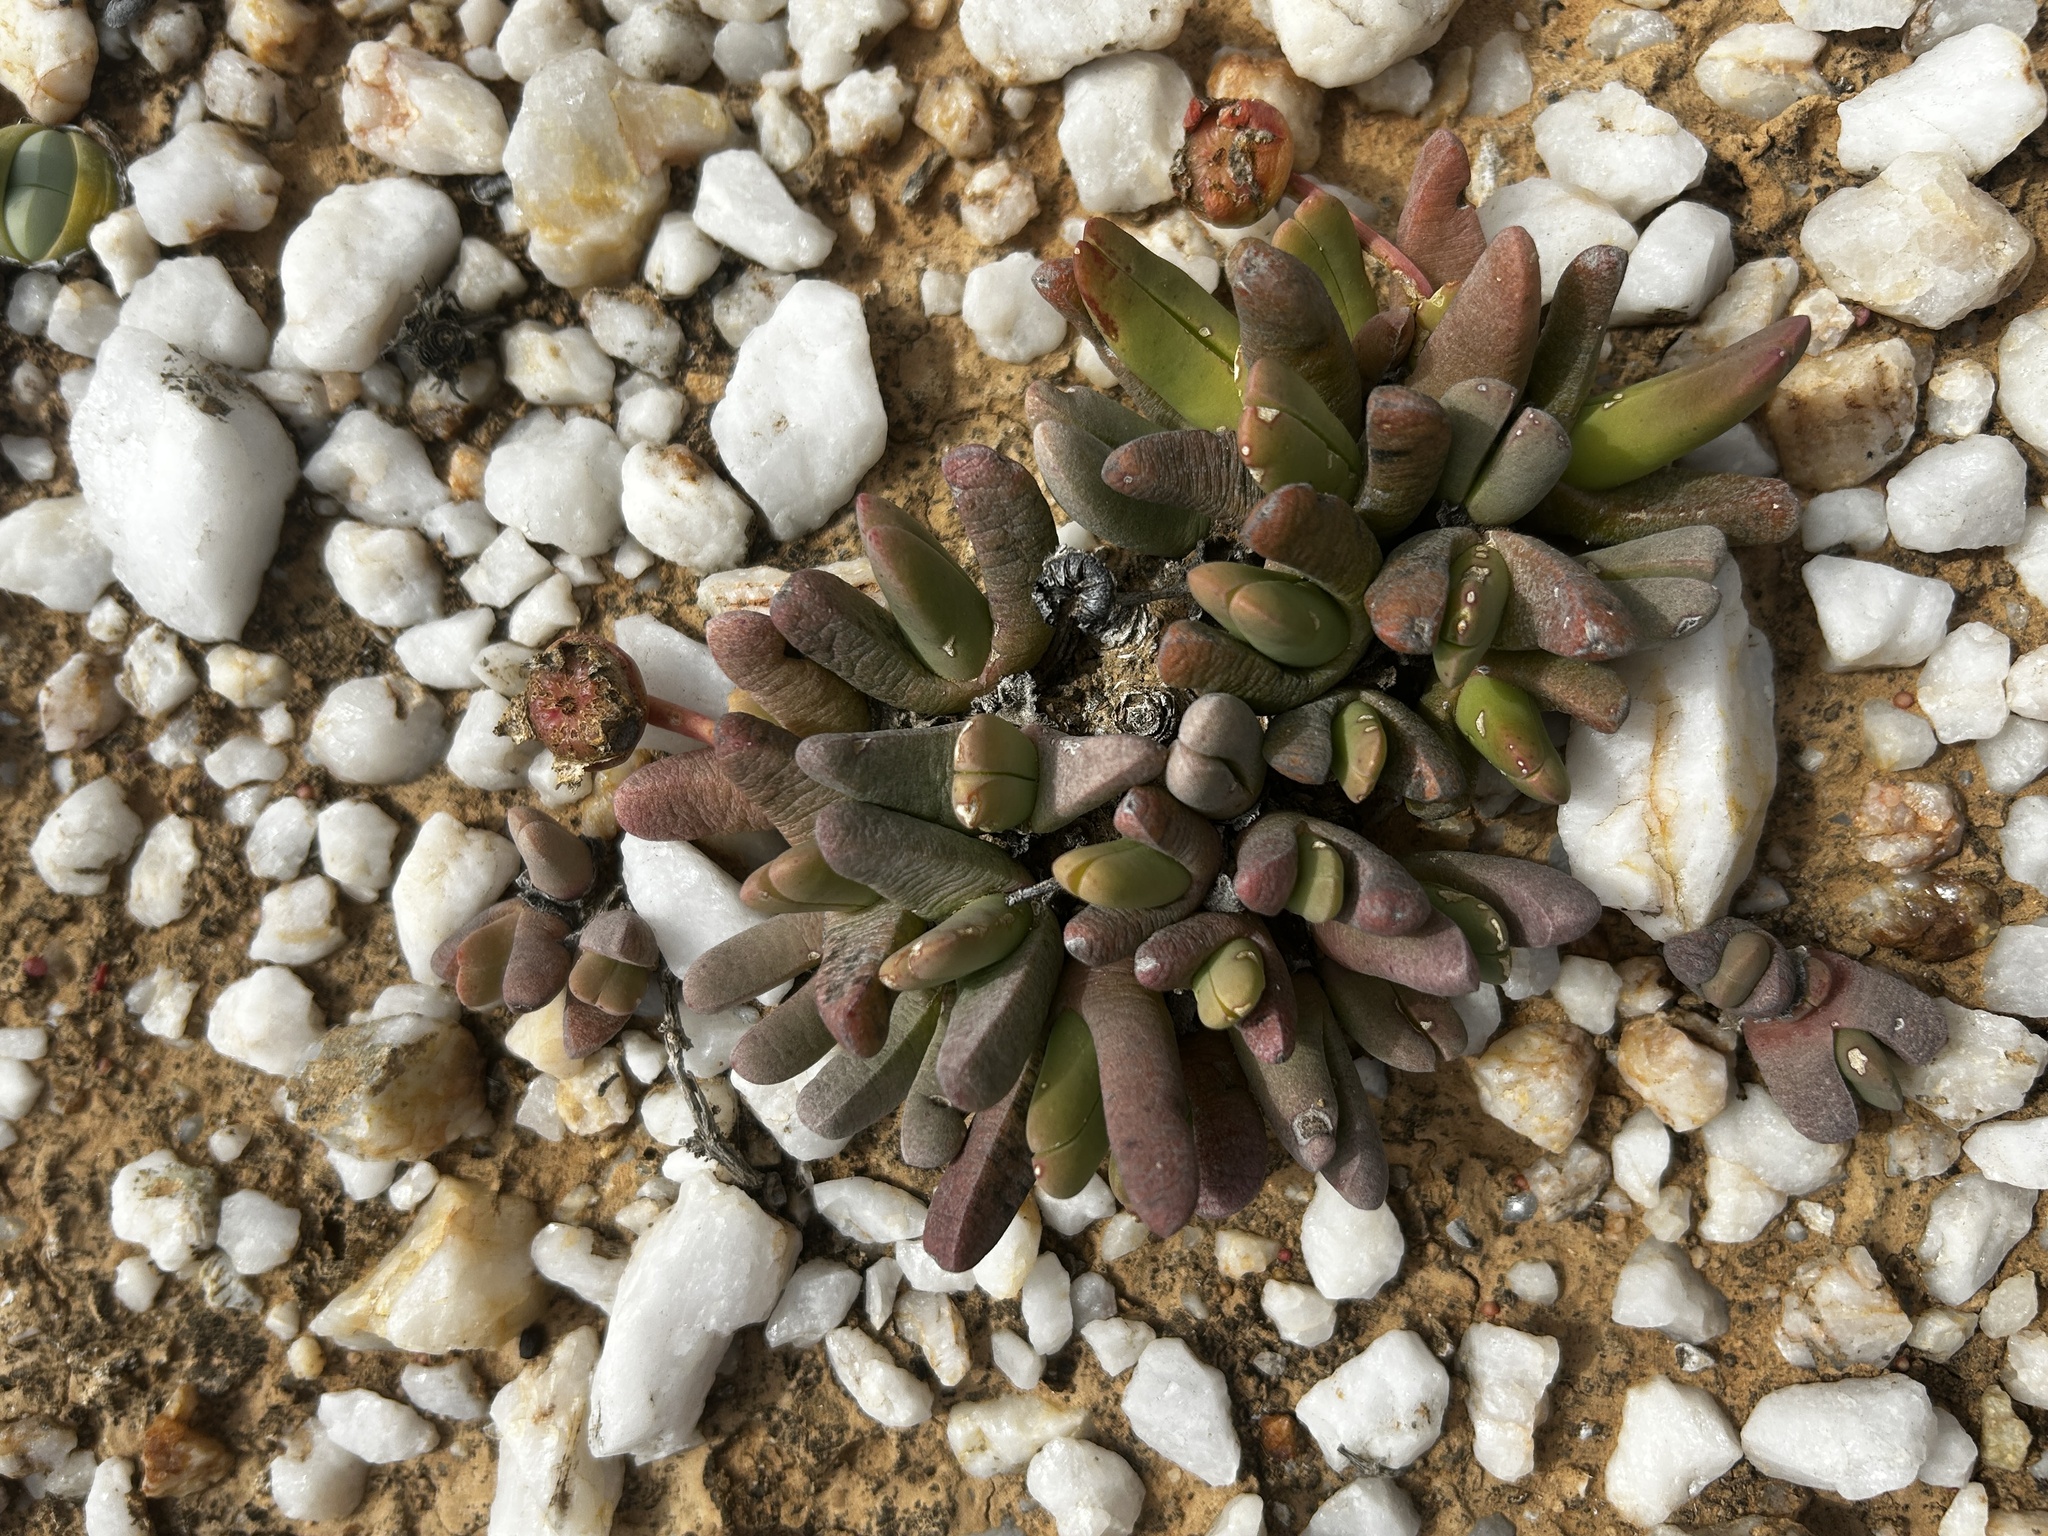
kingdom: Plantae
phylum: Tracheophyta
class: Magnoliopsida
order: Caryophyllales
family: Aizoaceae
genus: Cephalophyllum
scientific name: Cephalophyllum spissum
